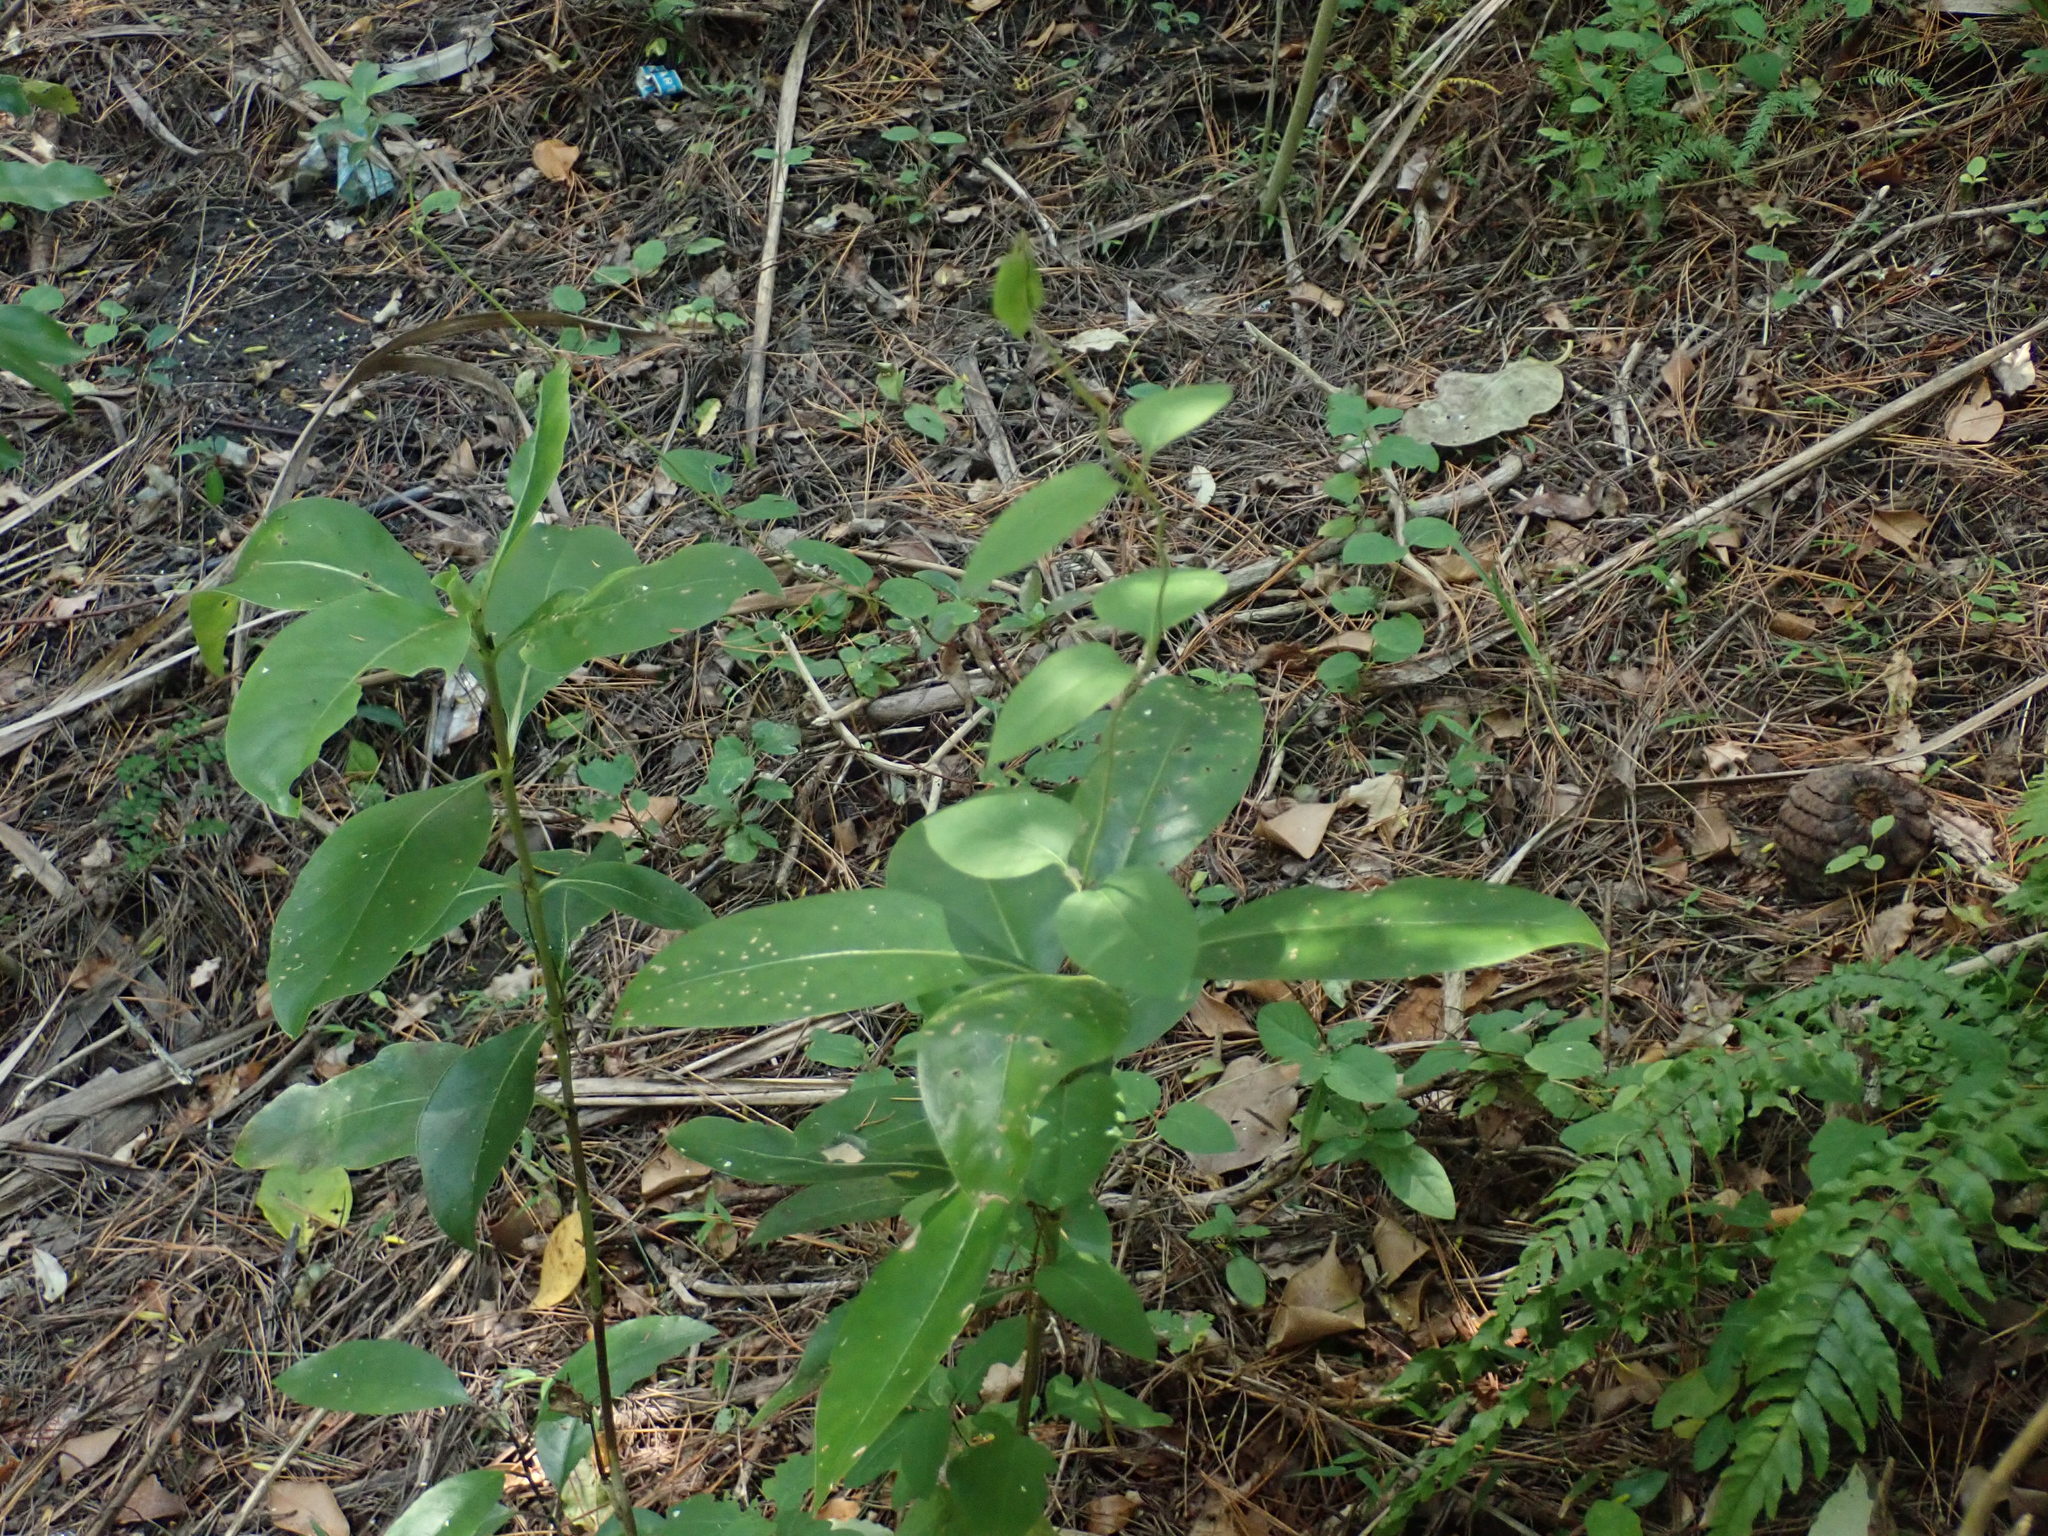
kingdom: Plantae
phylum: Tracheophyta
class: Magnoliopsida
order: Gentianales
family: Rubiaceae
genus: Coprosma
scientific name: Coprosma robusta
